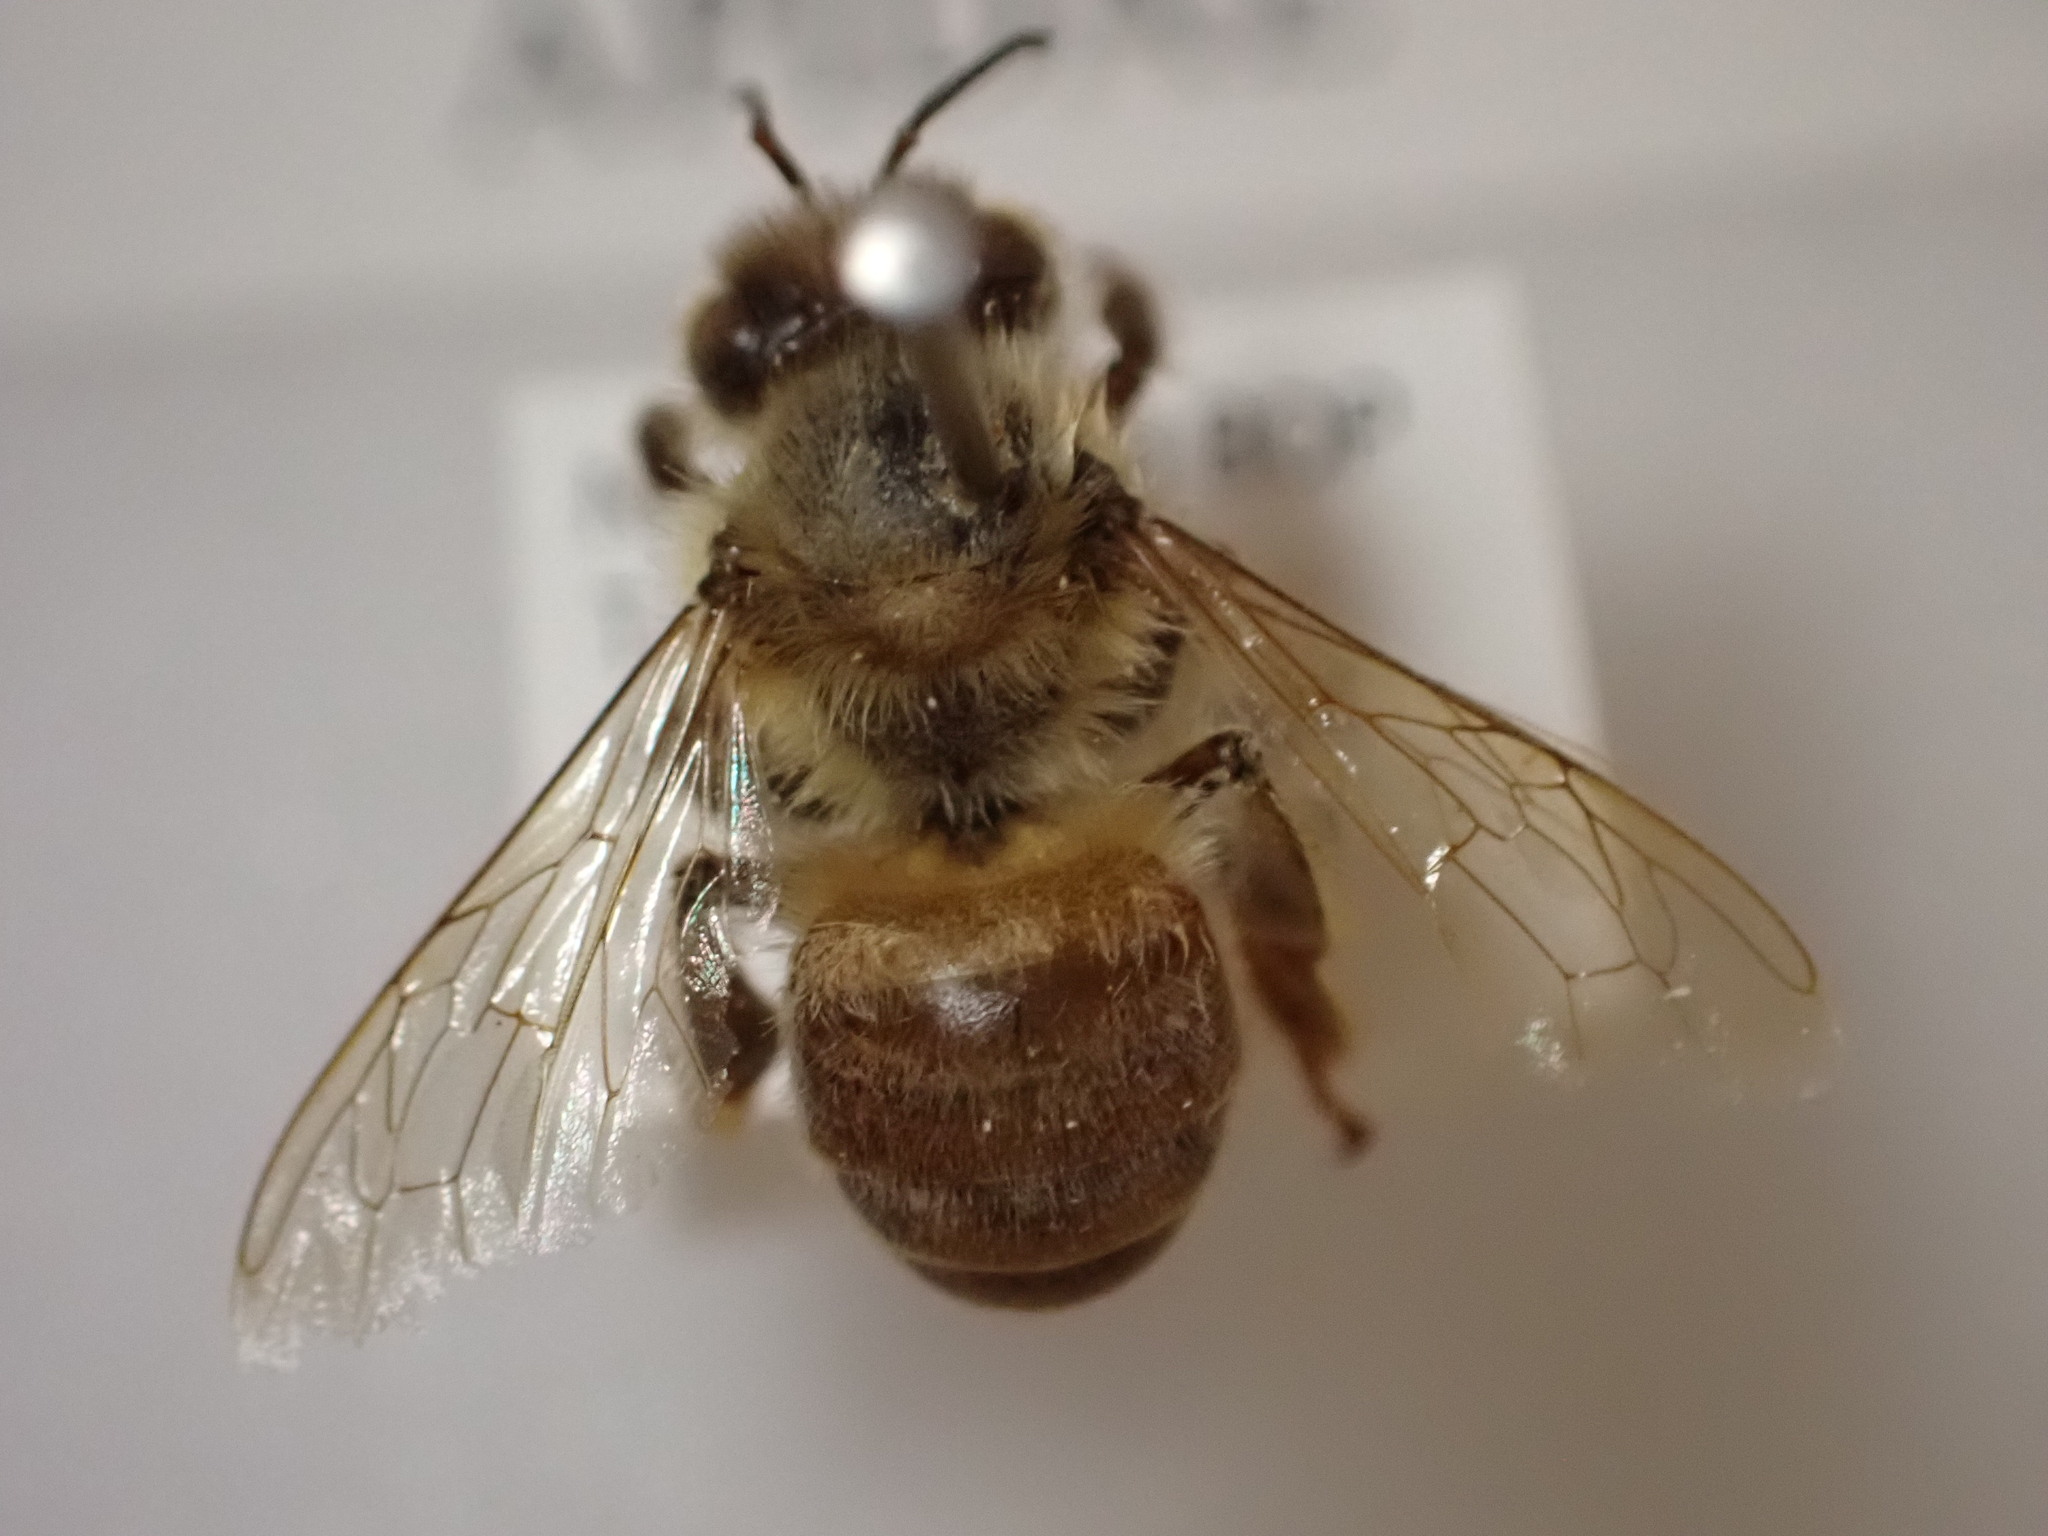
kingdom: Animalia
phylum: Arthropoda
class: Insecta
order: Hymenoptera
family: Apidae
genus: Apis
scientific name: Apis mellifera
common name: Honey bee
